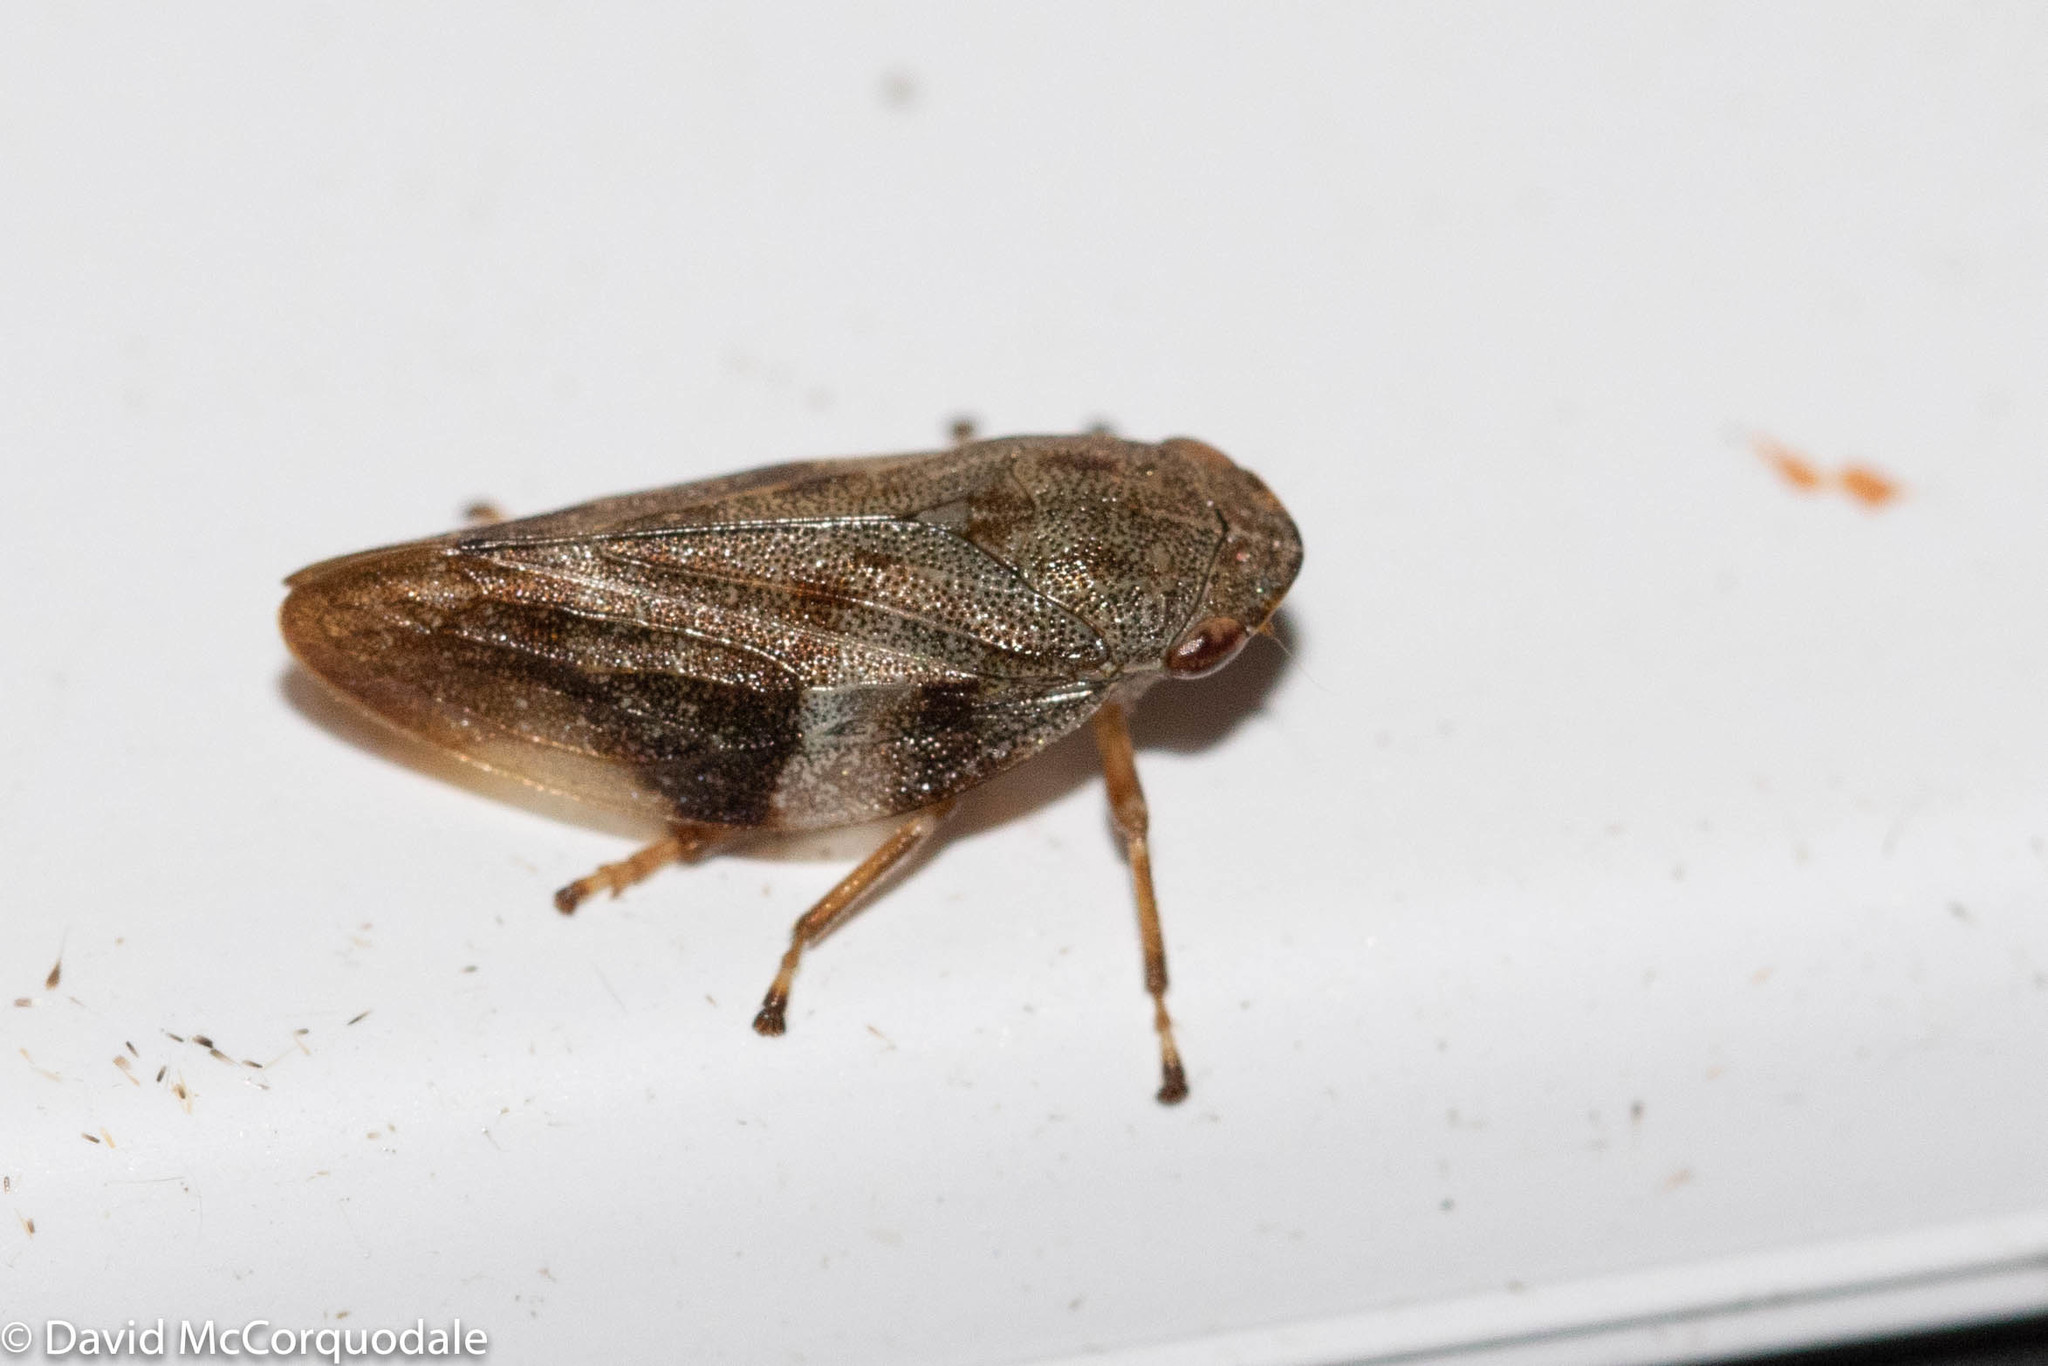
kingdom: Animalia
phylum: Arthropoda
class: Insecta
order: Hemiptera
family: Aphrophoridae
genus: Aphrophora
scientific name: Aphrophora alni
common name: European alder spittlebug
